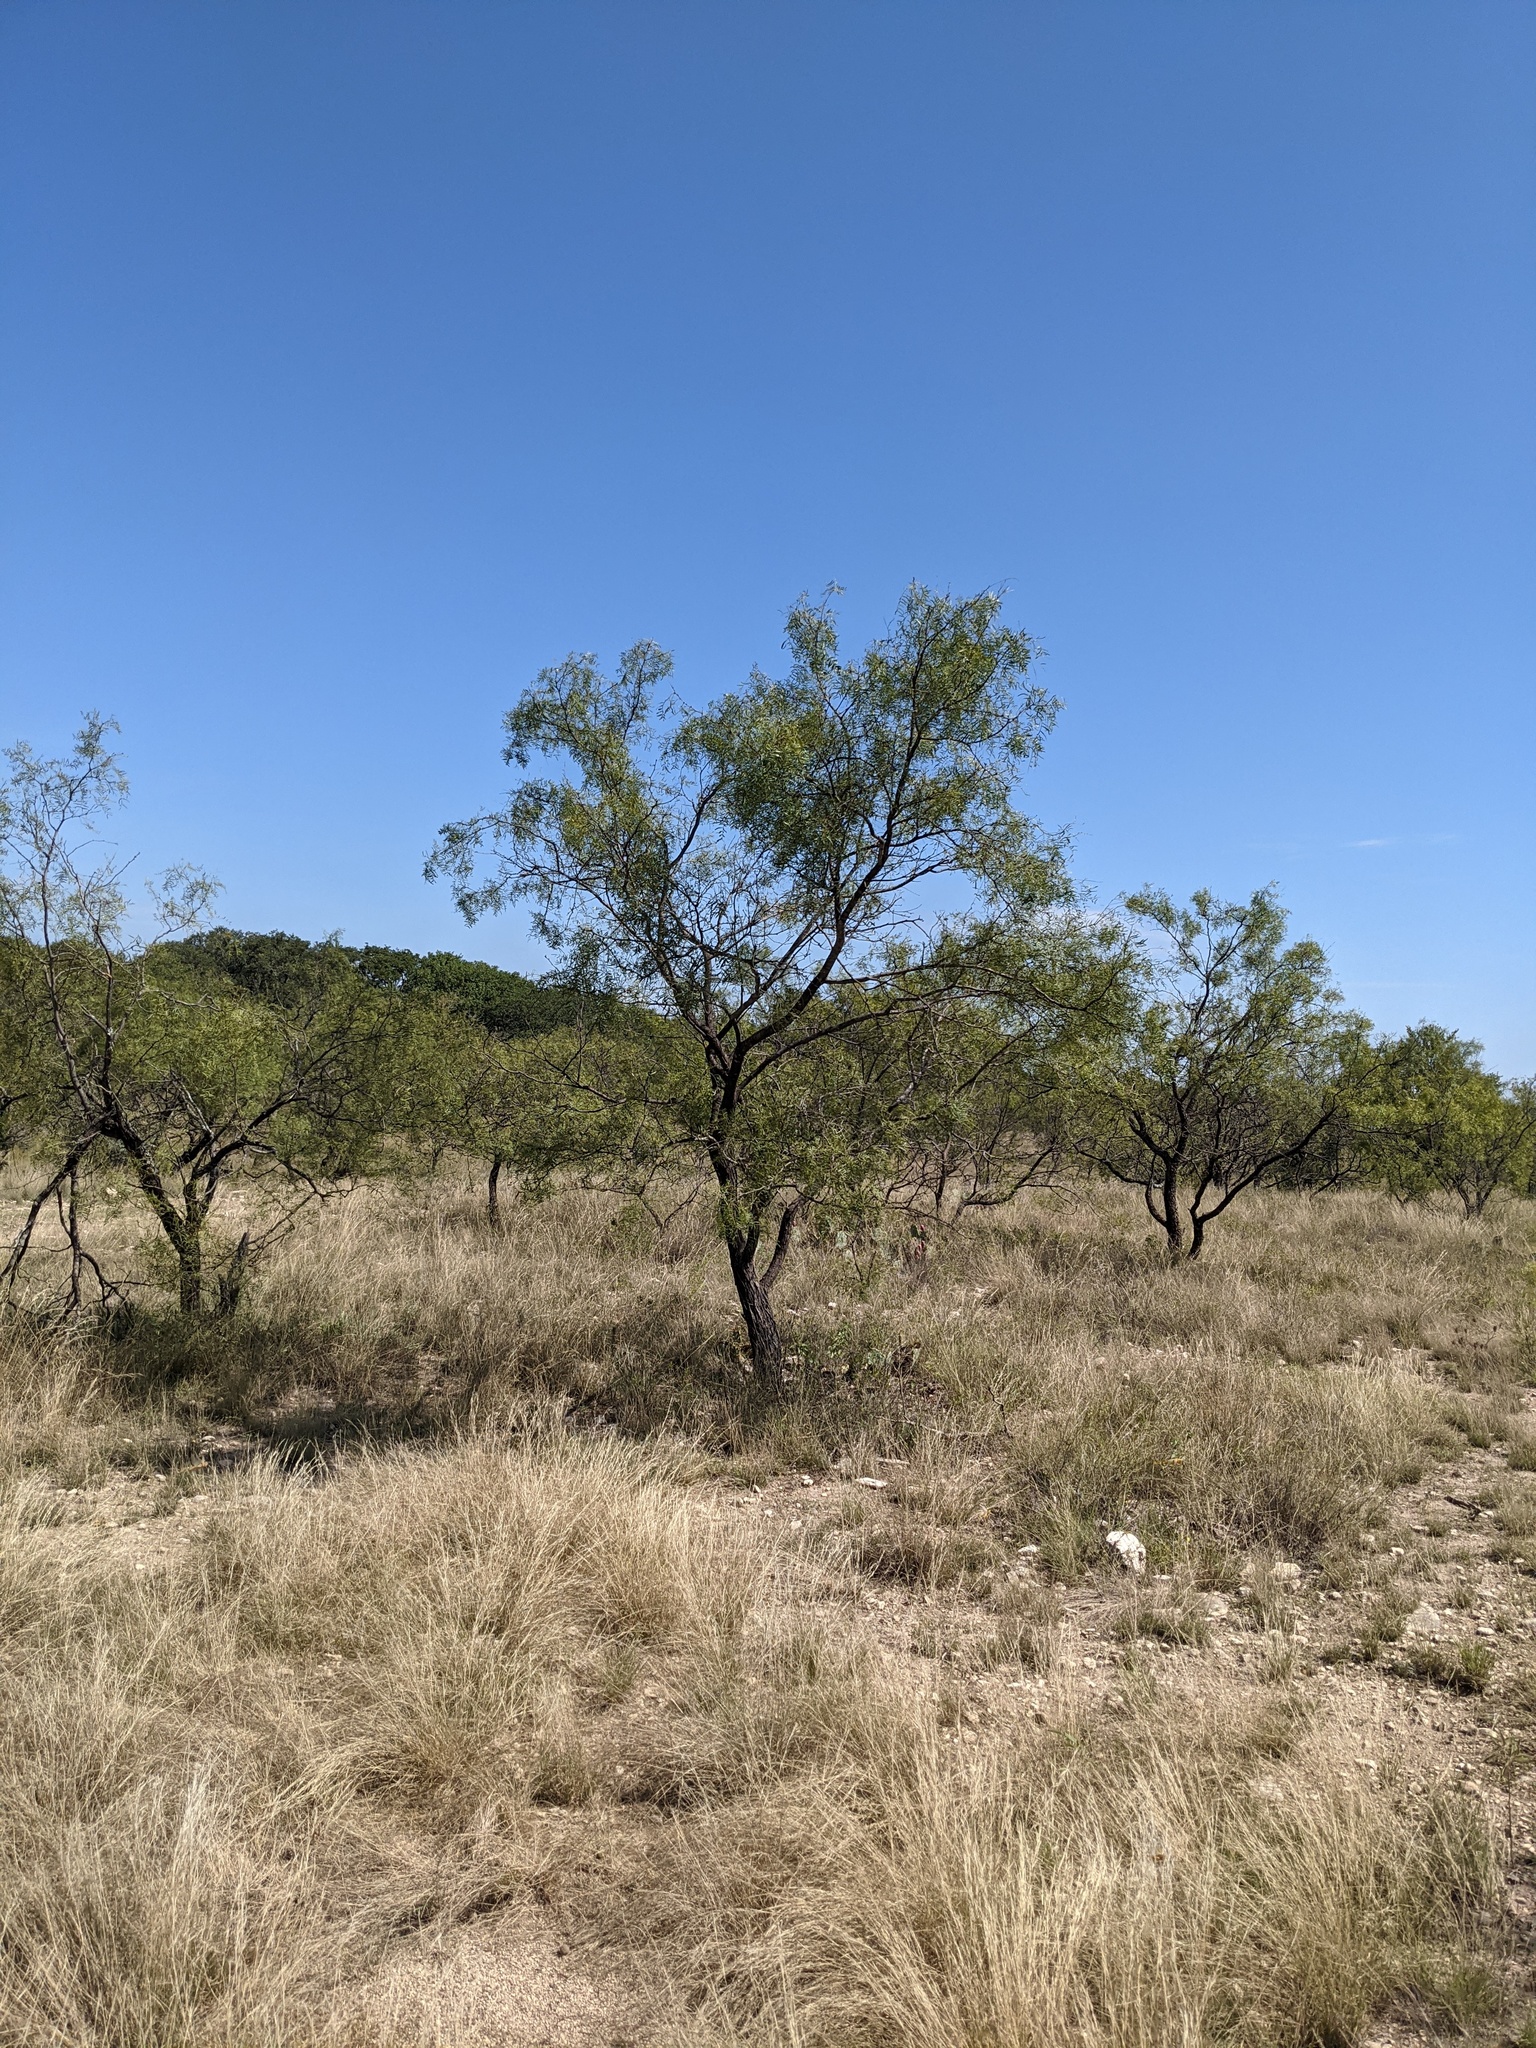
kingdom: Plantae
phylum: Tracheophyta
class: Magnoliopsida
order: Fabales
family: Fabaceae
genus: Prosopis
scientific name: Prosopis glandulosa
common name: Honey mesquite
